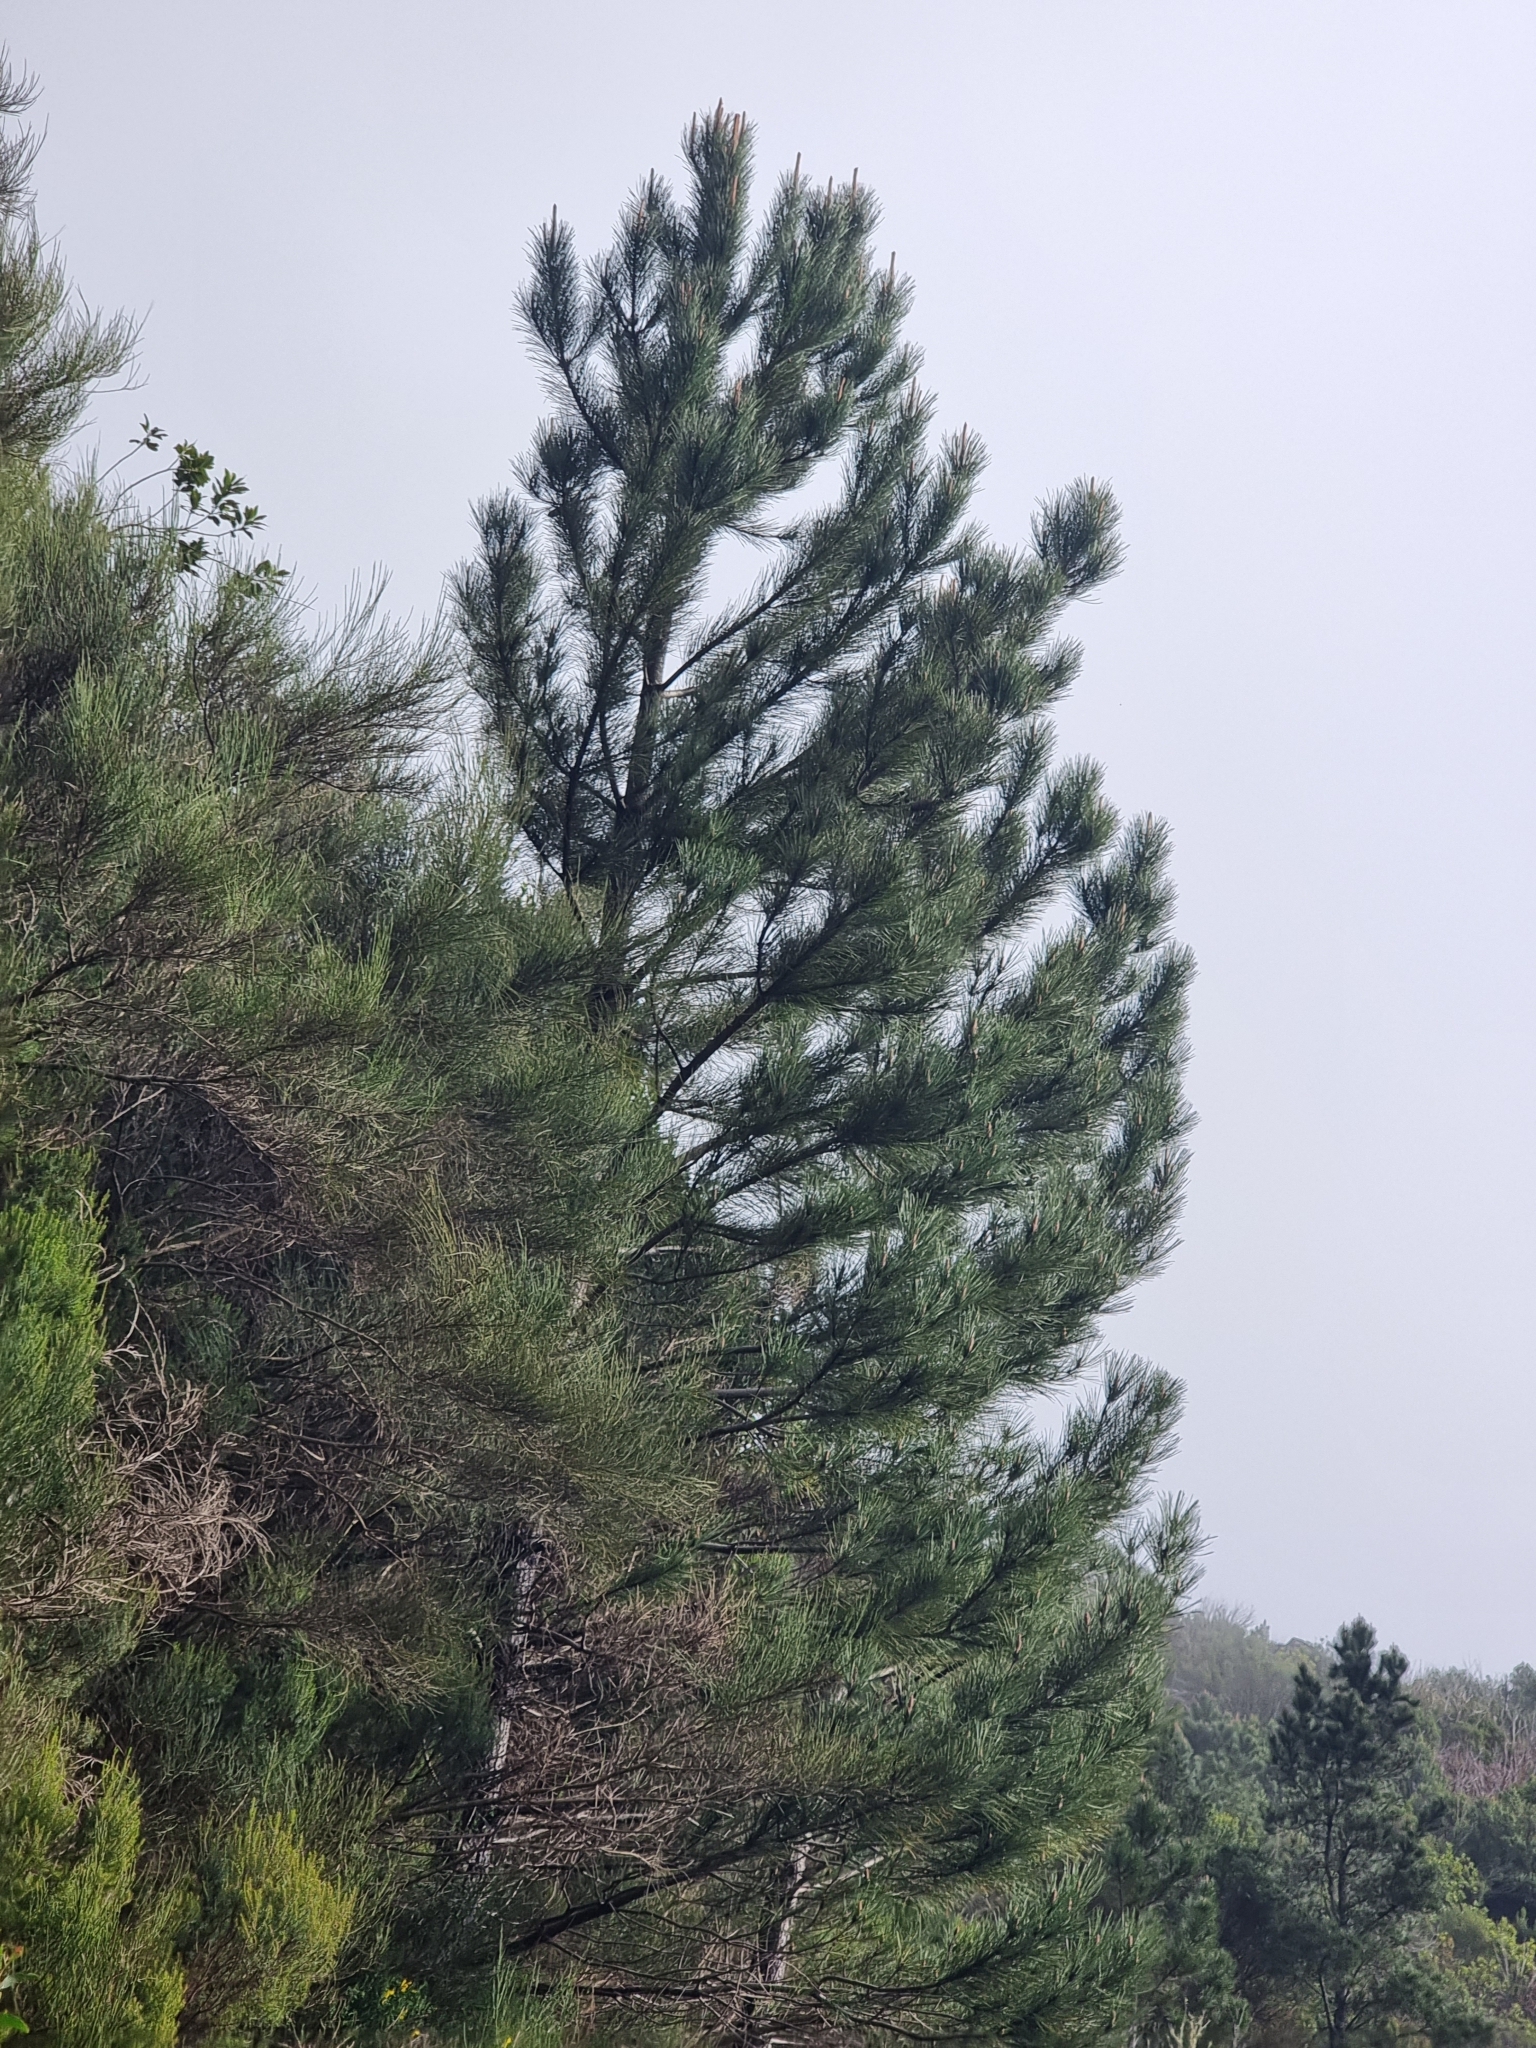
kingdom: Plantae
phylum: Tracheophyta
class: Pinopsida
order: Pinales
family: Pinaceae
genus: Pinus
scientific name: Pinus pinaster
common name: Maritime pine
